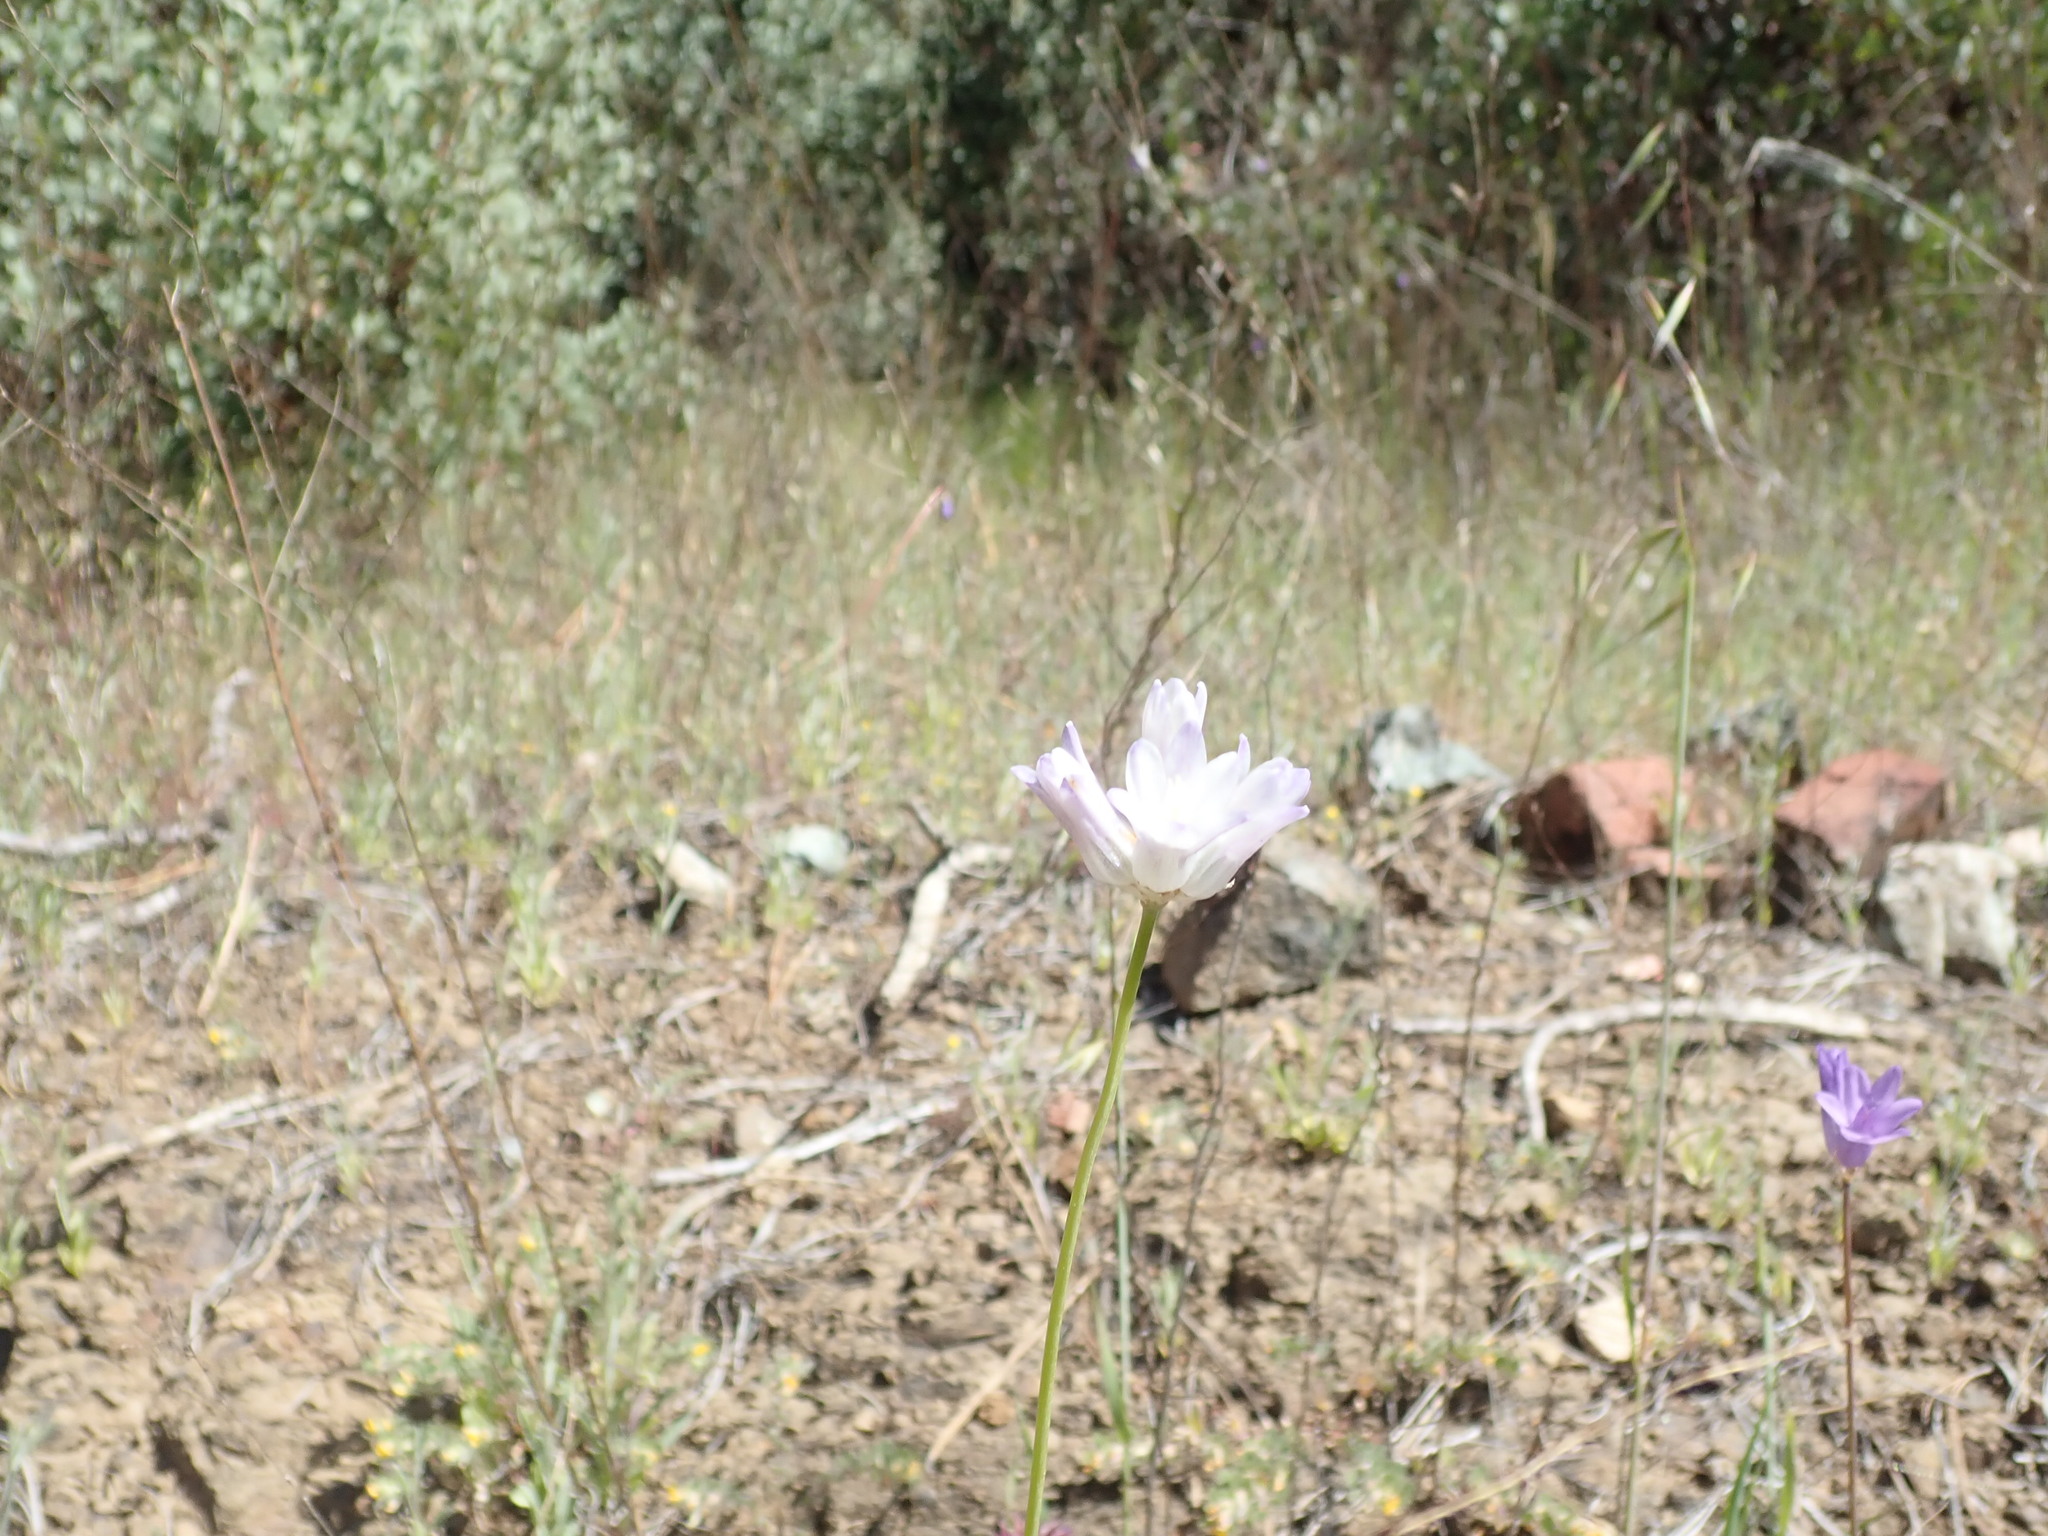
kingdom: Plantae
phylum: Tracheophyta
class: Liliopsida
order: Asparagales
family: Asparagaceae
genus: Dipterostemon
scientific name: Dipterostemon capitatus
